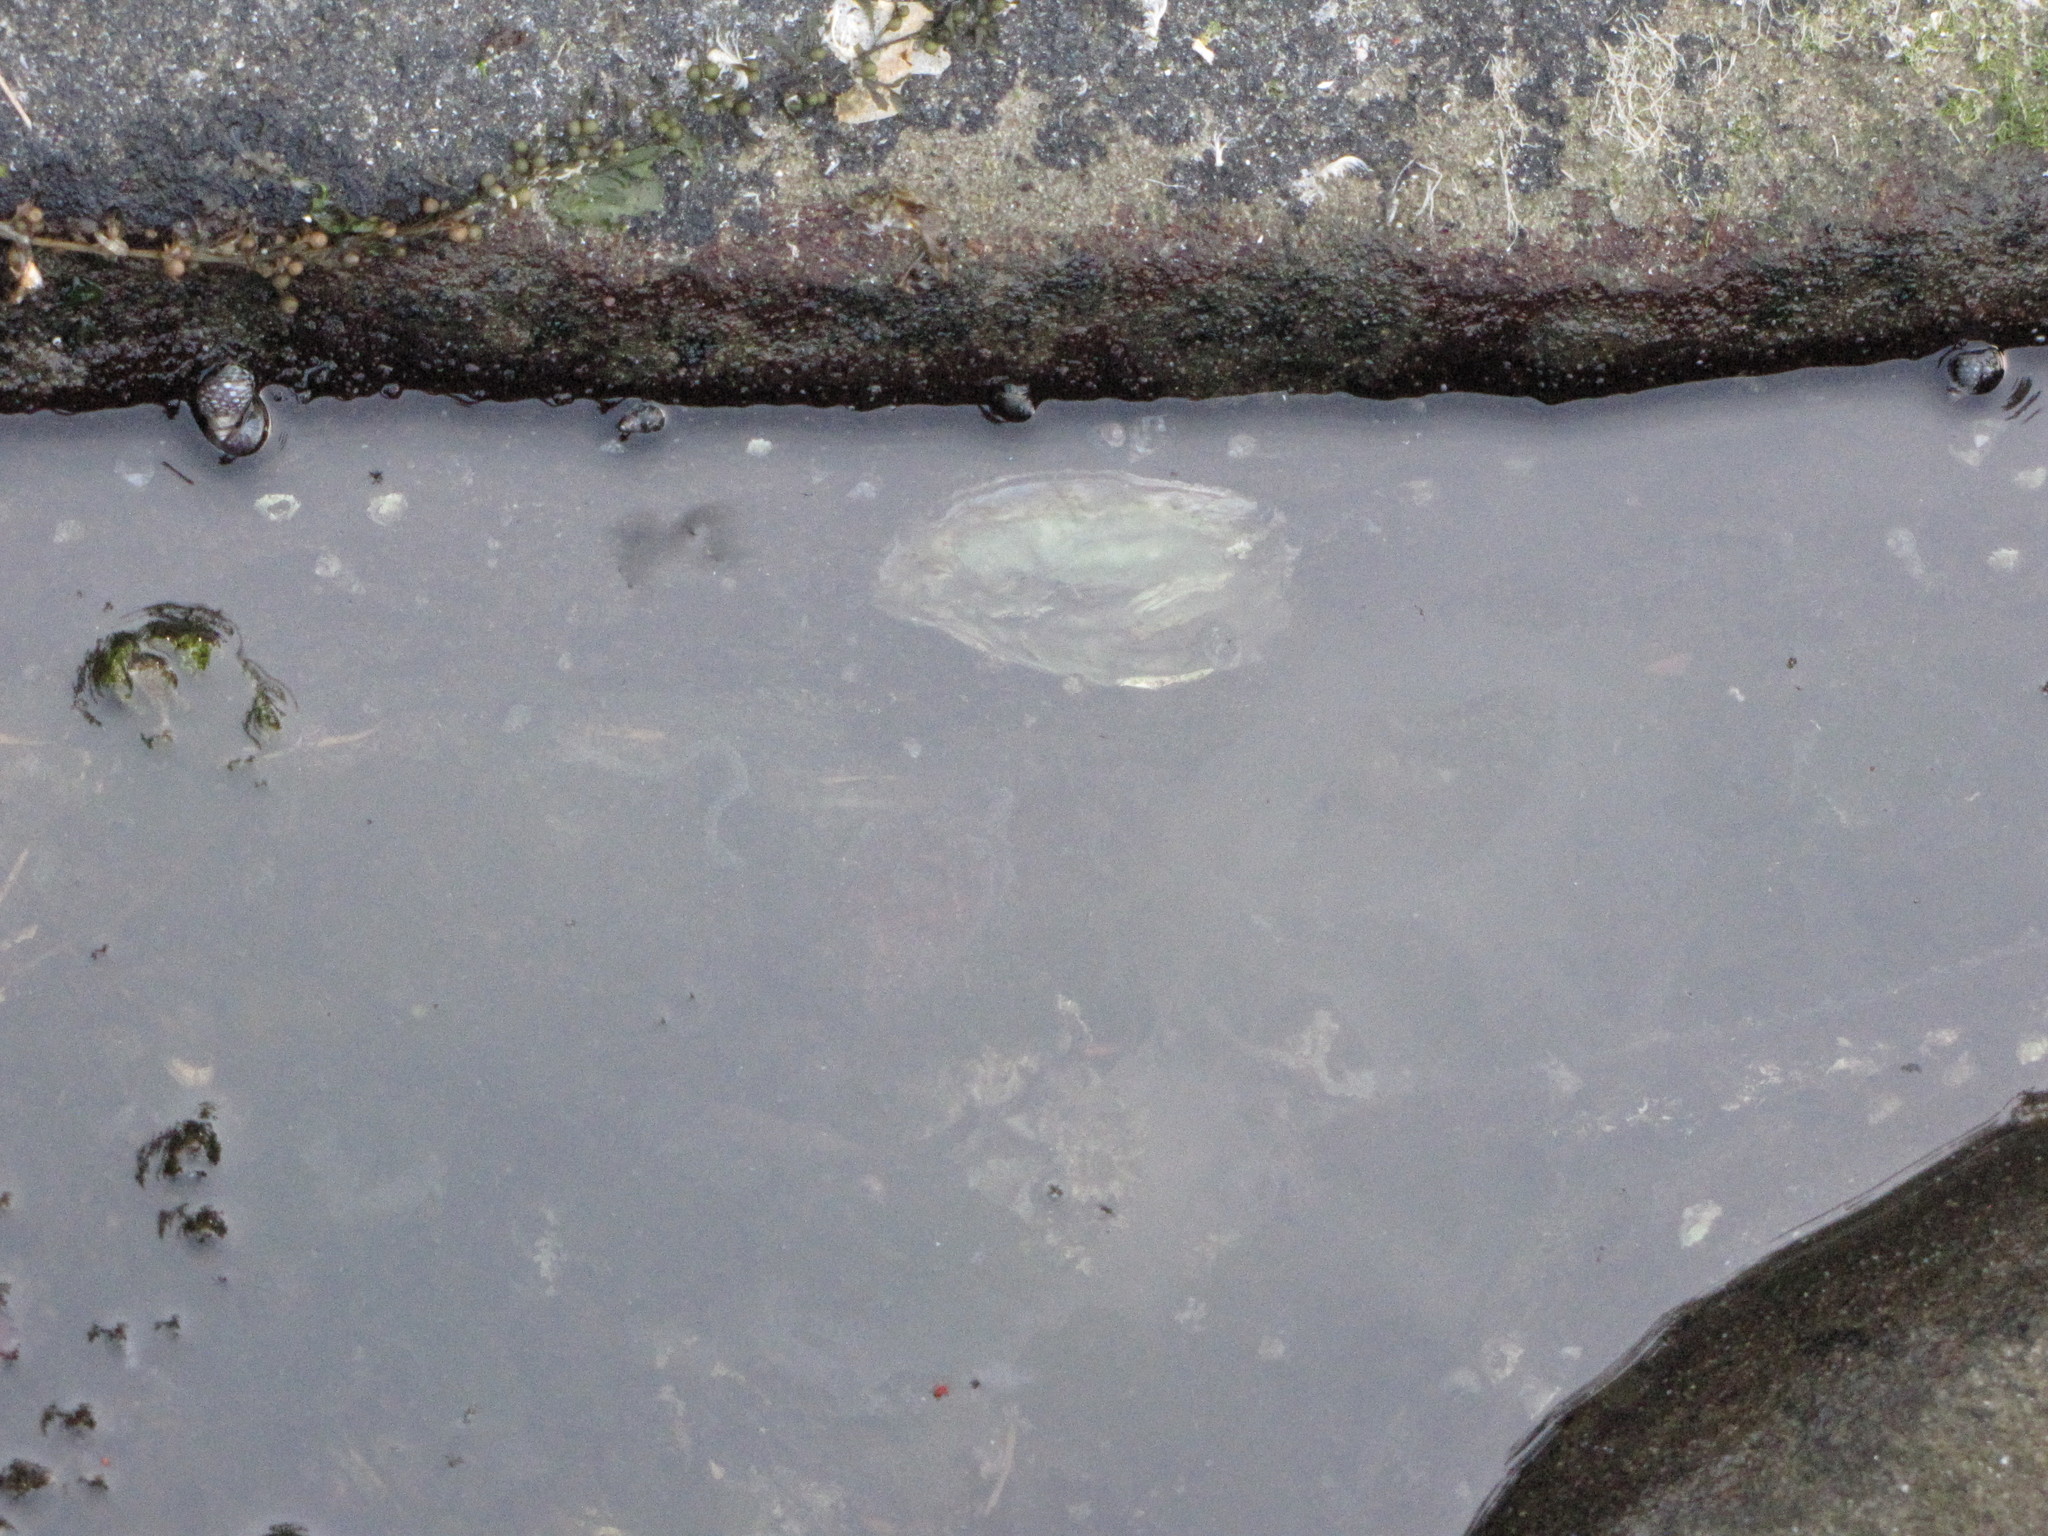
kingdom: Animalia
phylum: Mollusca
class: Bivalvia
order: Ostreida
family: Ostreidae
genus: Magallana
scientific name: Magallana gigas
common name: Pacific oyster
